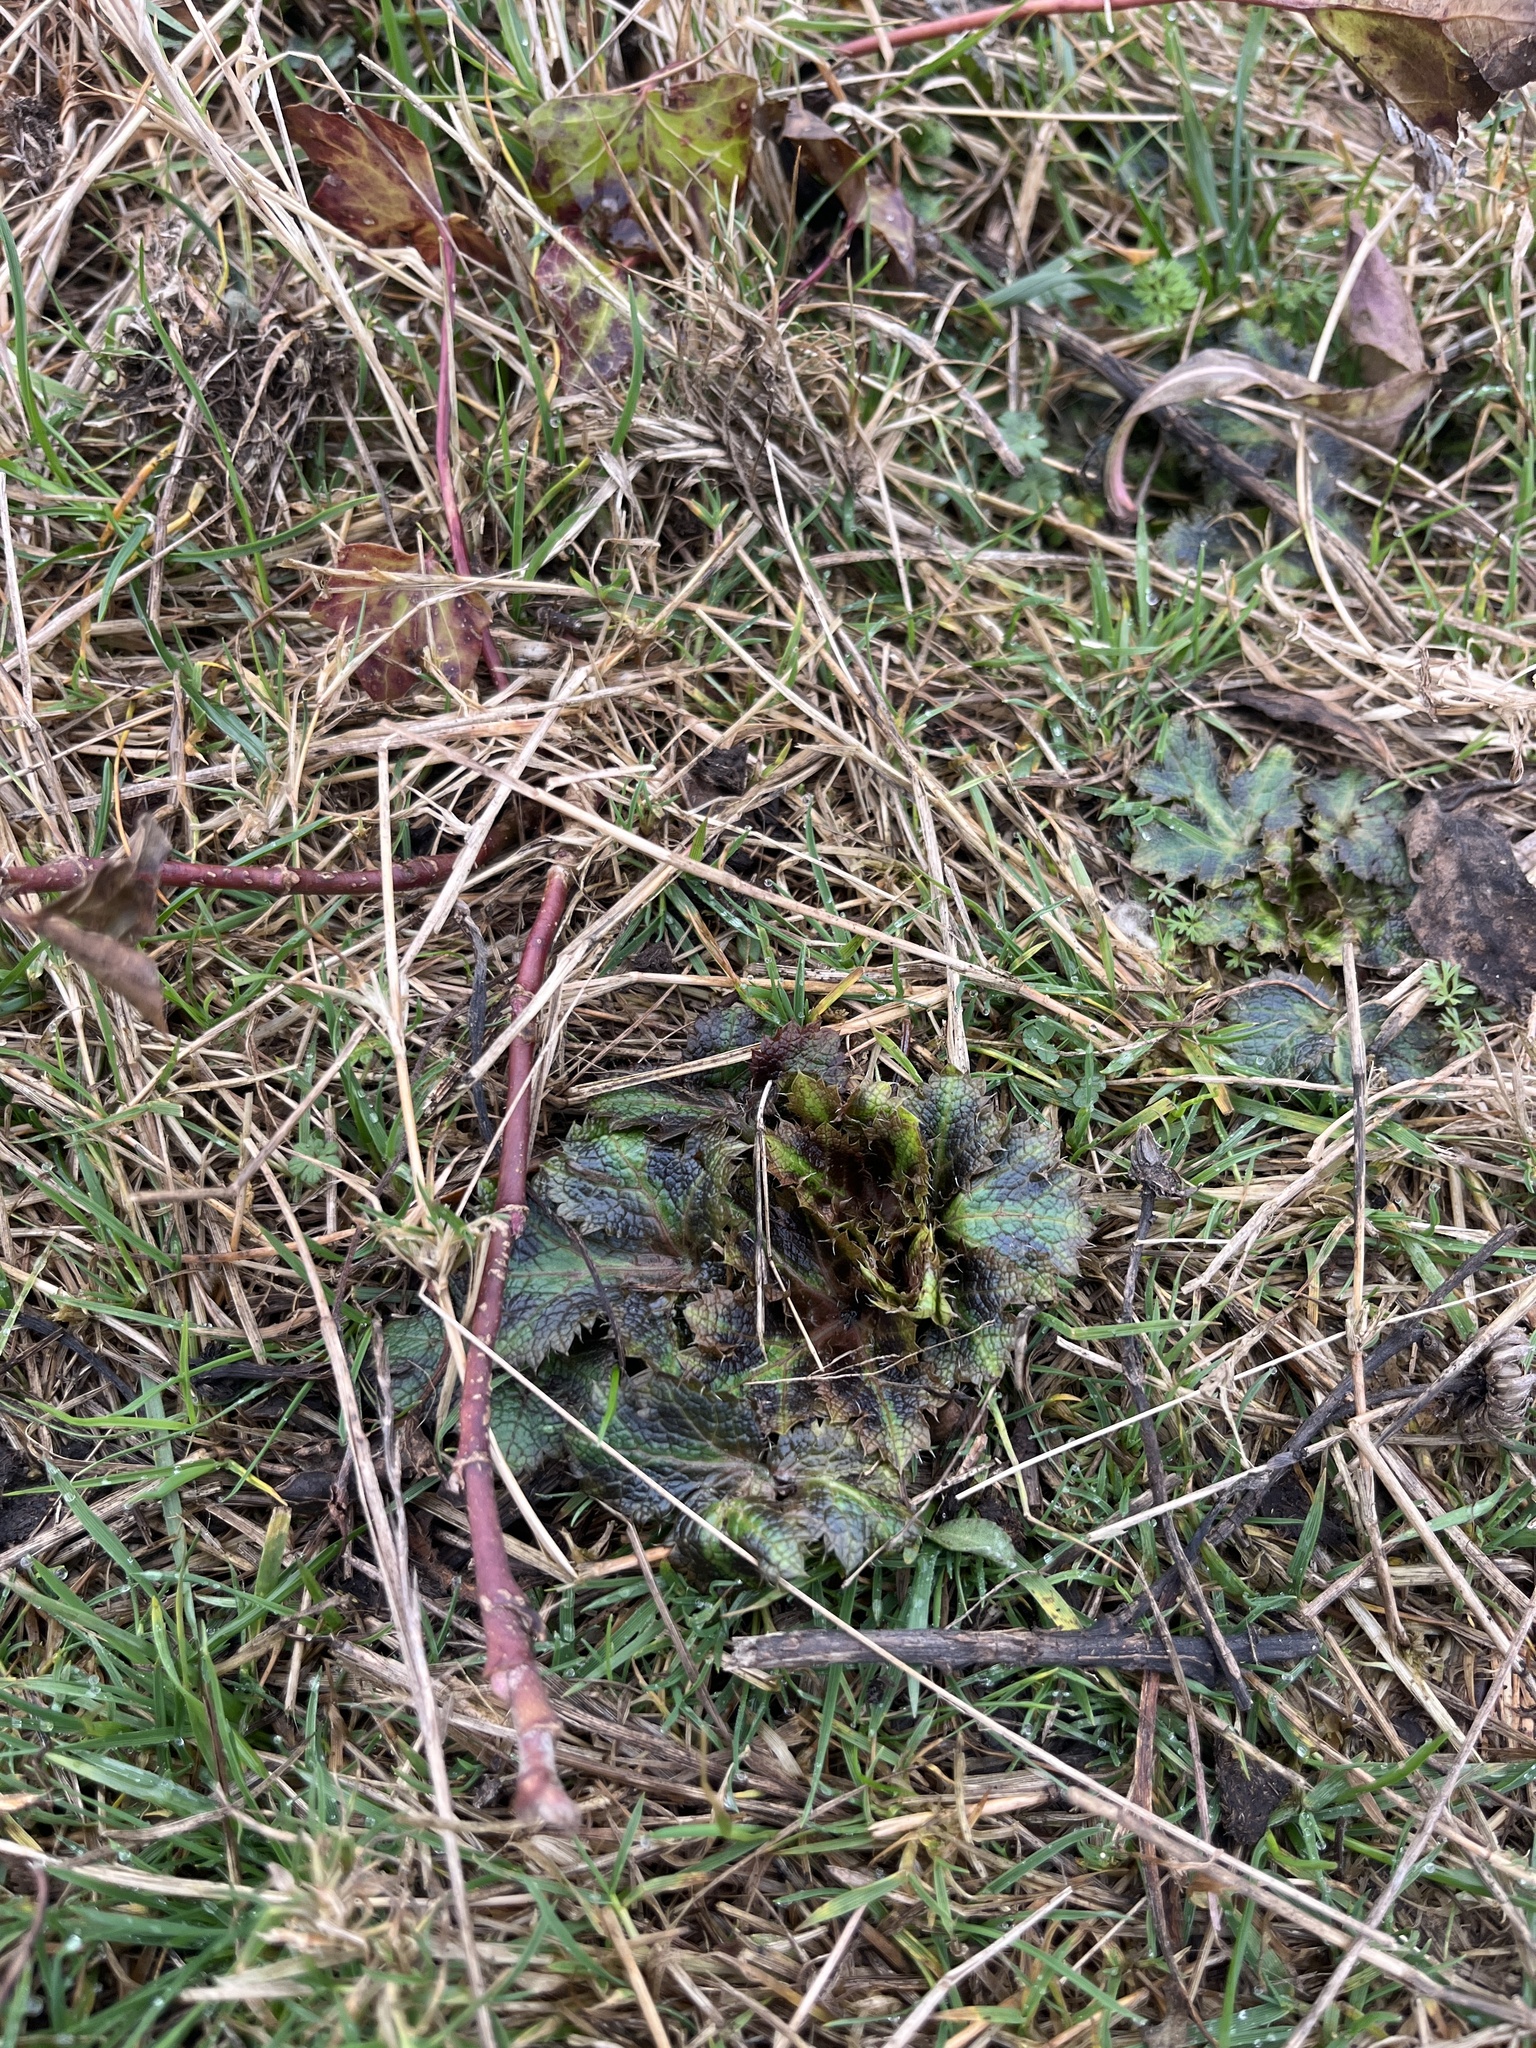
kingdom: Plantae
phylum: Tracheophyta
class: Magnoliopsida
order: Apiales
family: Apiaceae
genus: Sanicula
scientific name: Sanicula crassicaulis
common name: Western snakeroot
